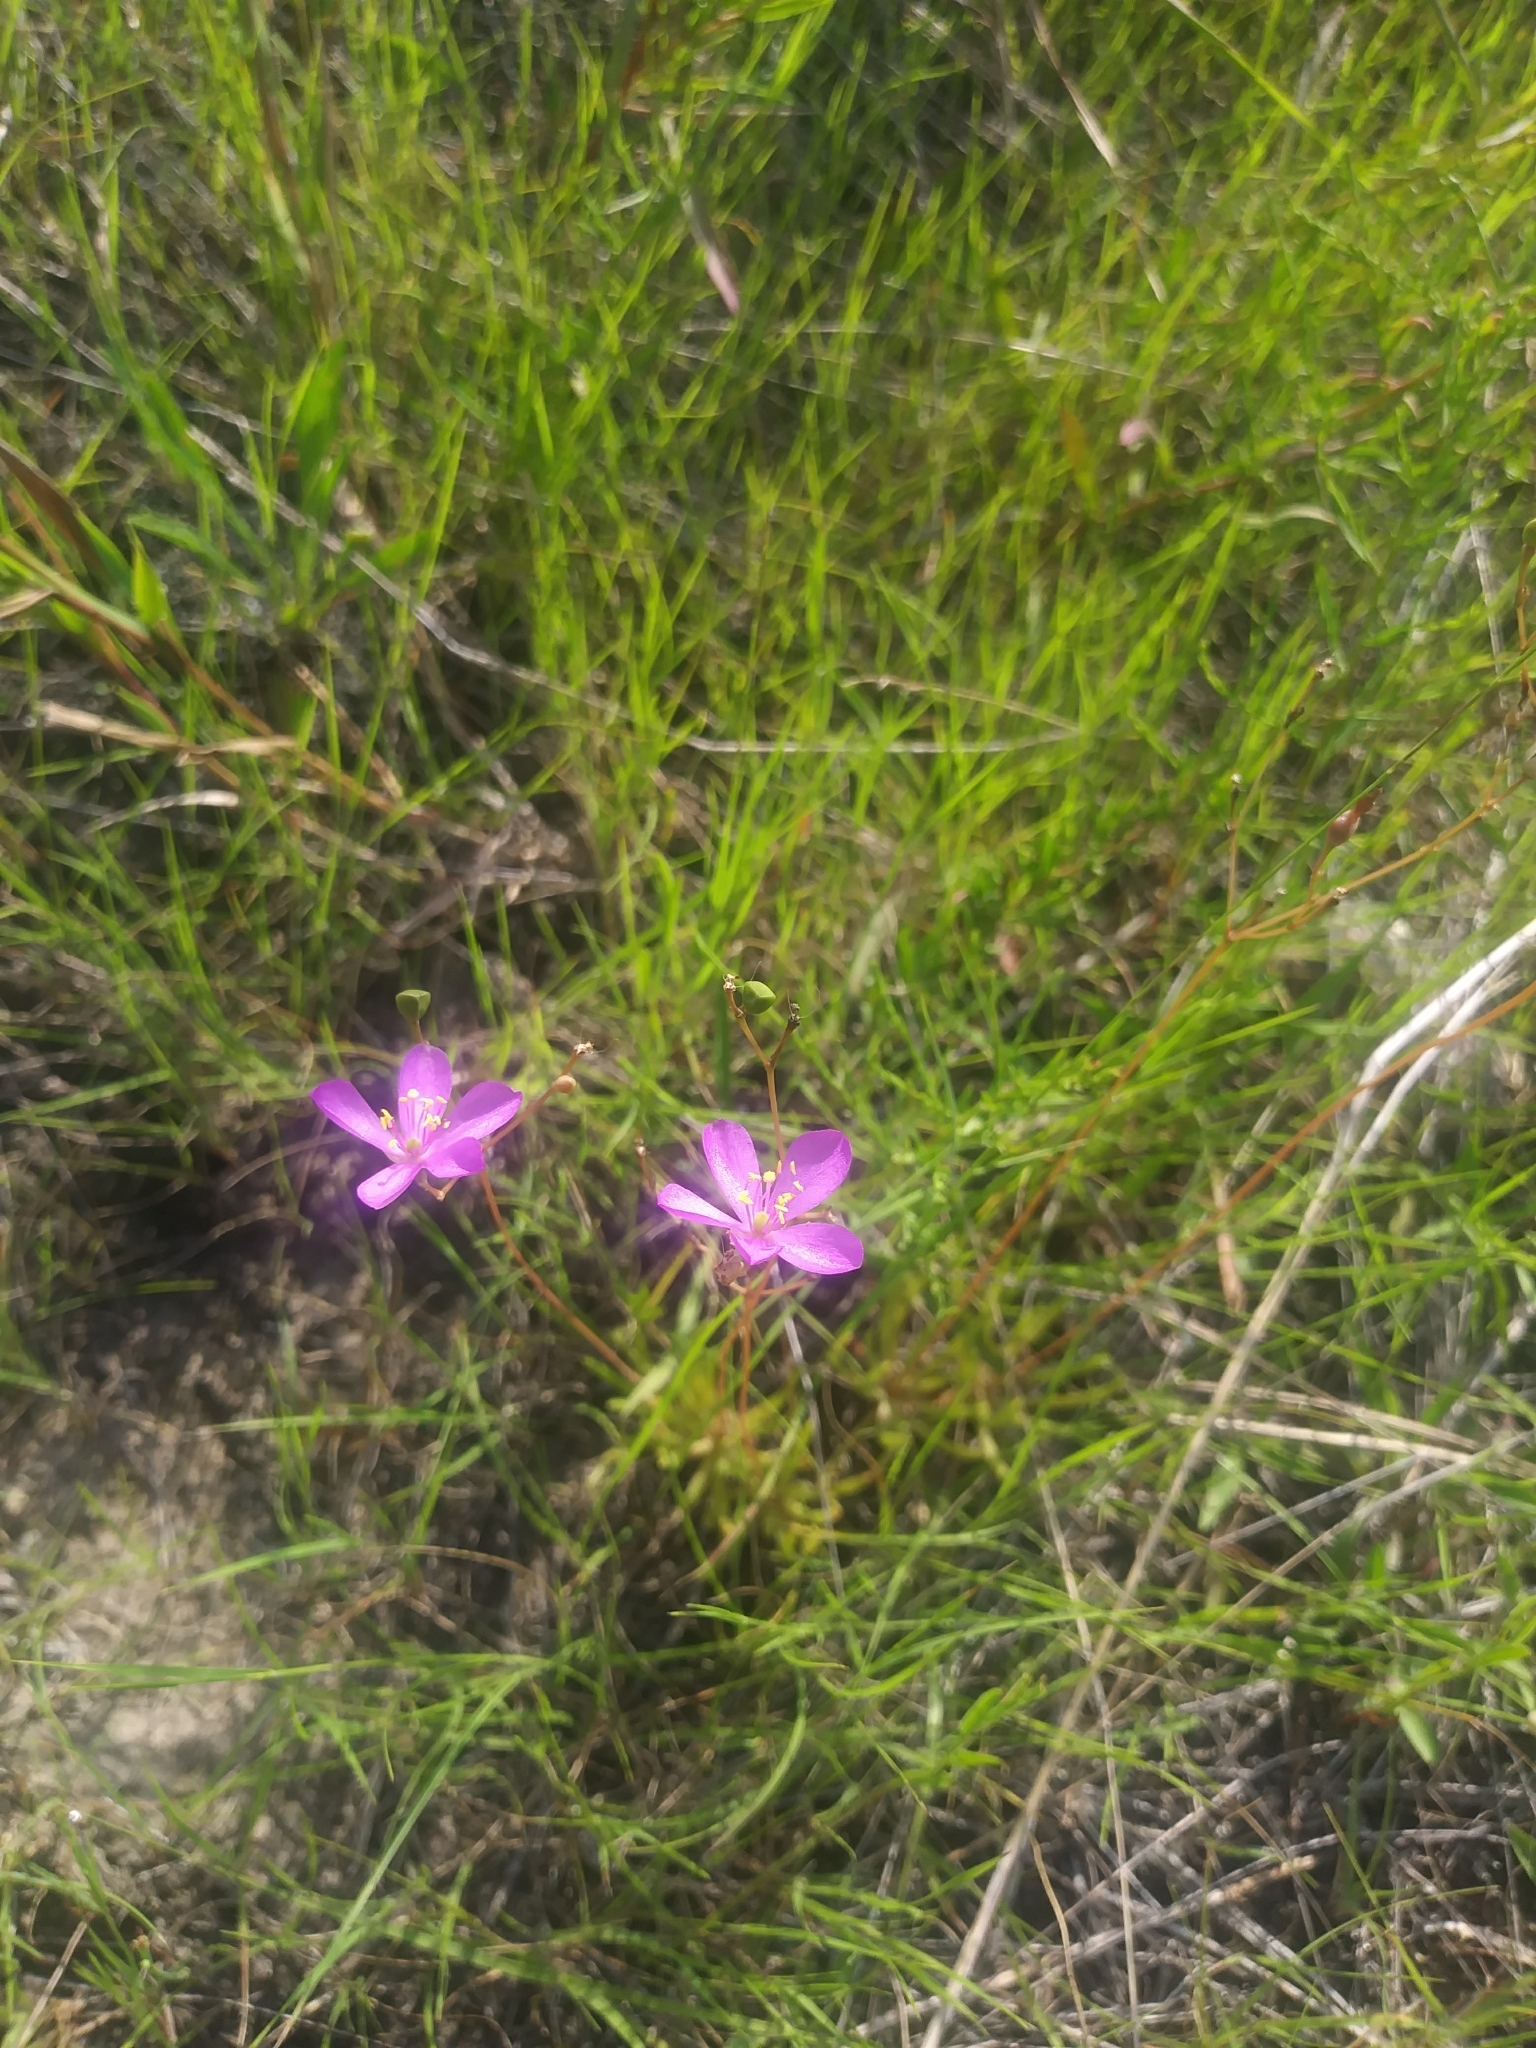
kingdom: Plantae
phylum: Tracheophyta
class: Magnoliopsida
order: Caryophyllales
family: Montiaceae
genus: Phemeranthus
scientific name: Phemeranthus teretifolius
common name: Quill fameflower
